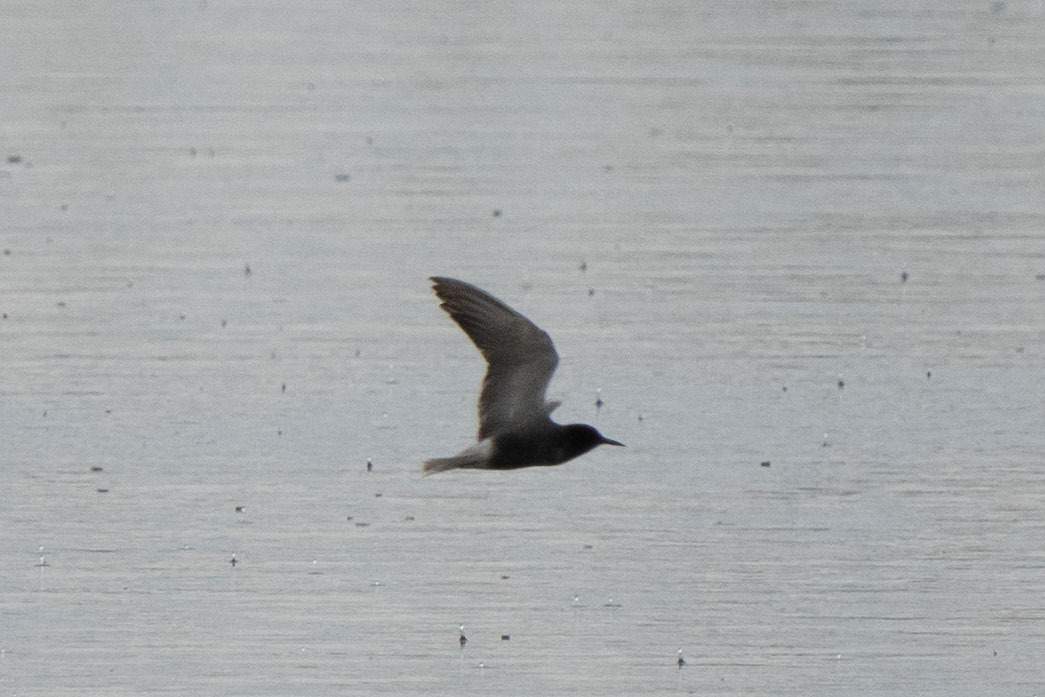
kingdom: Animalia
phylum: Chordata
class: Aves
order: Charadriiformes
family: Laridae
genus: Chlidonias
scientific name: Chlidonias niger
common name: Black tern
